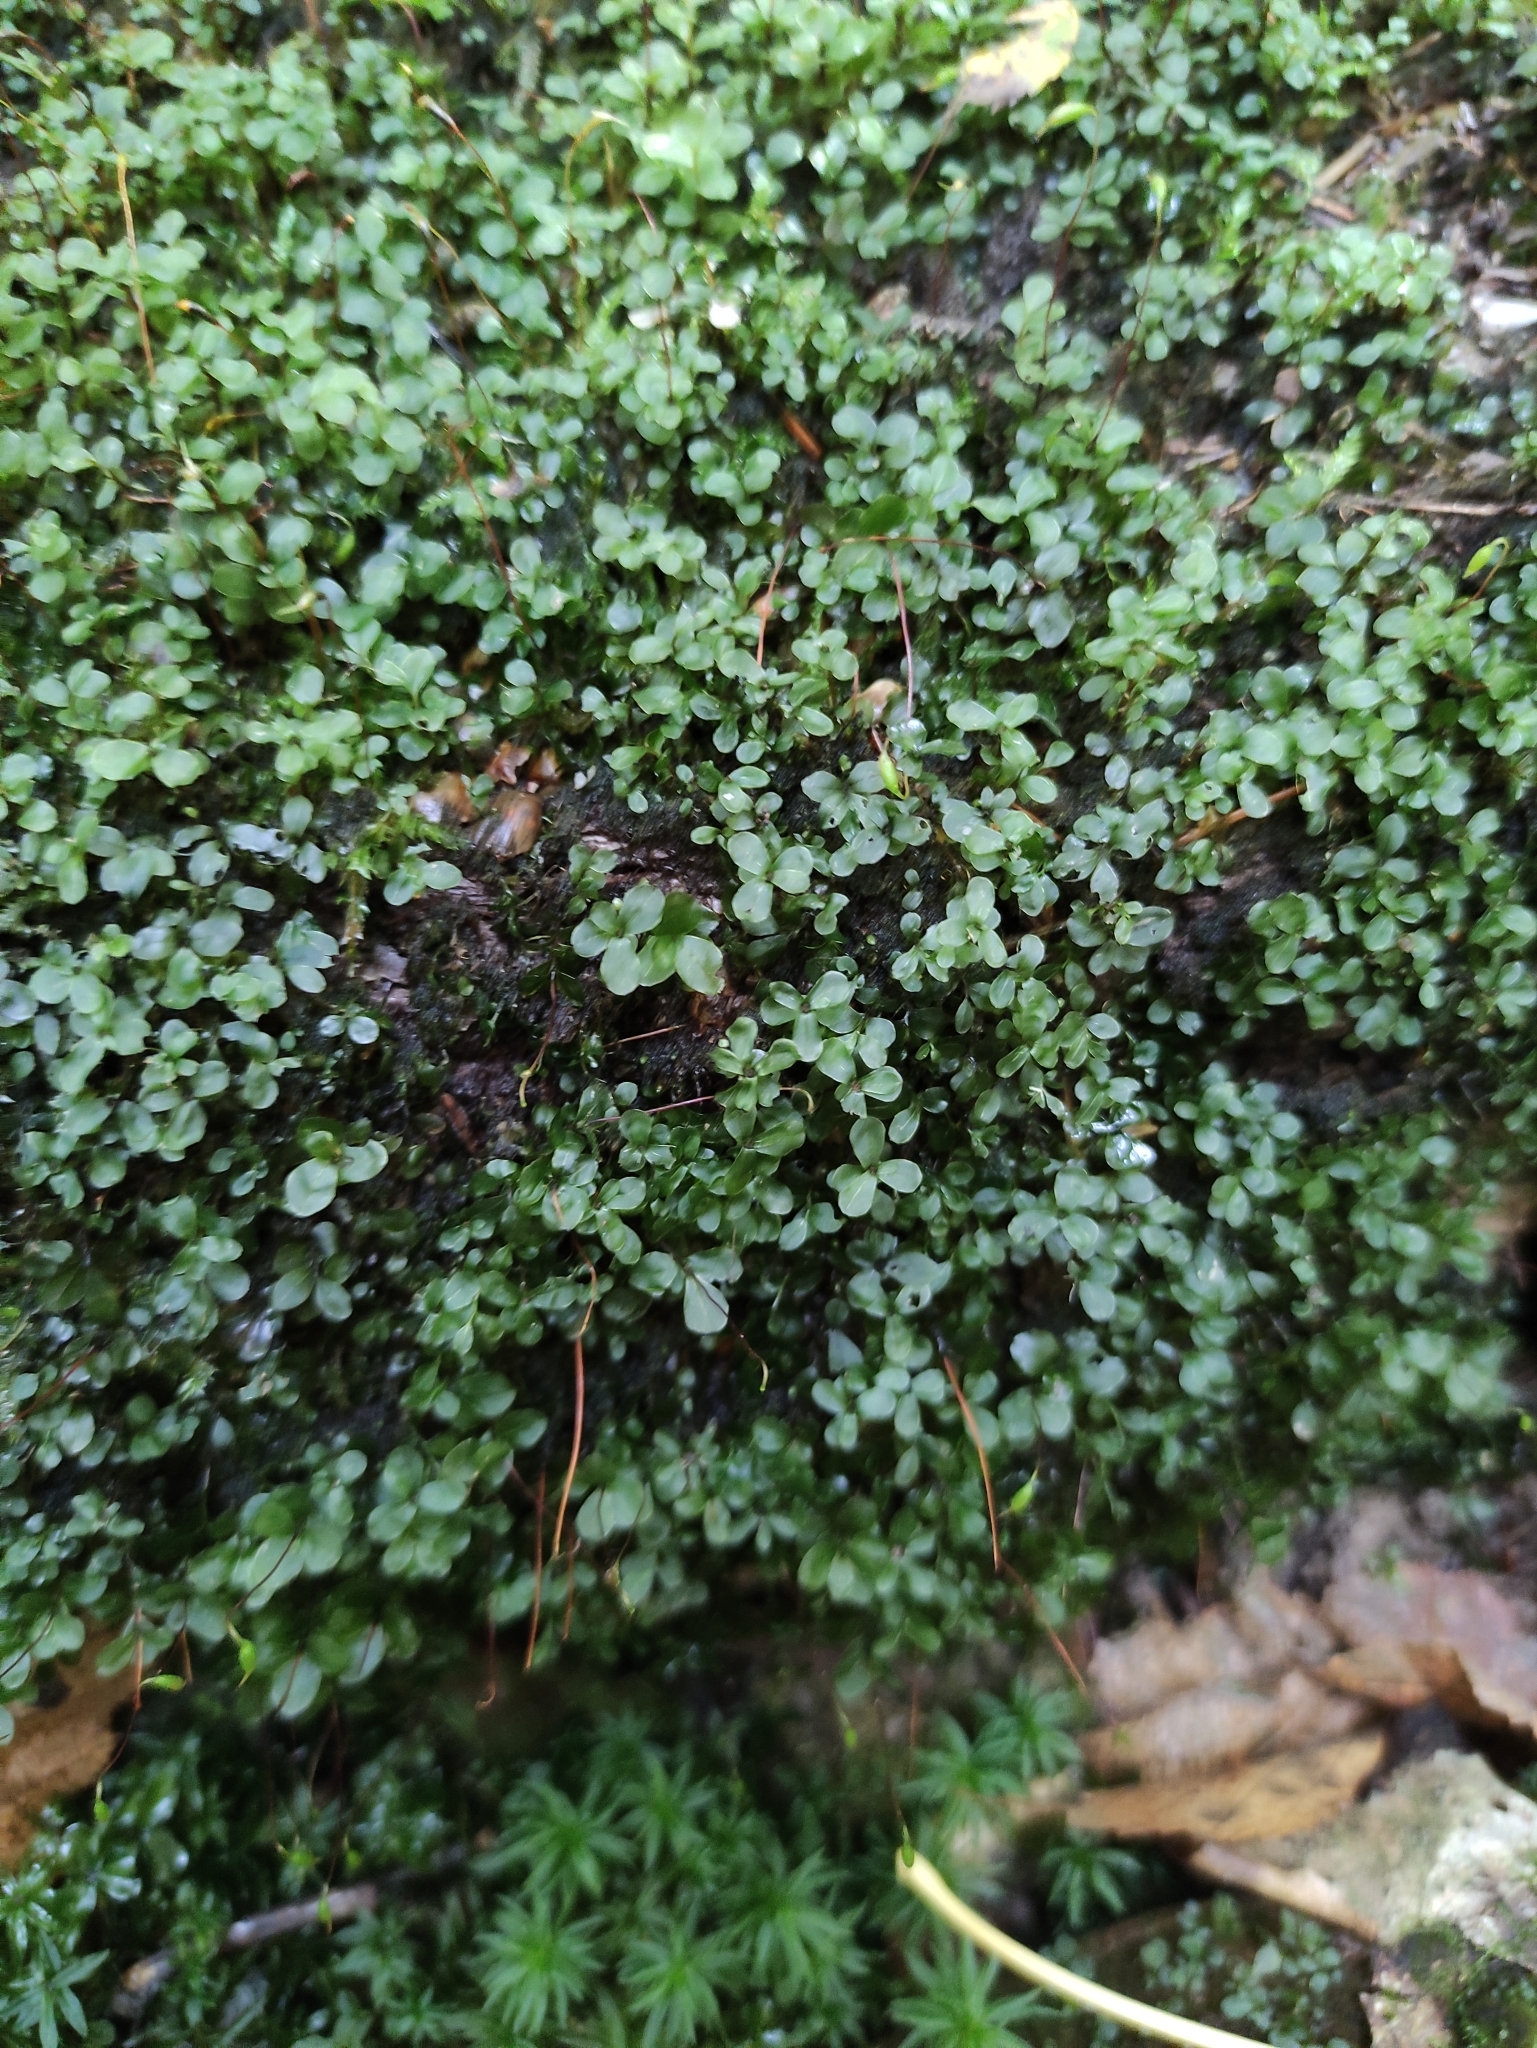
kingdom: Plantae
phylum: Bryophyta
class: Bryopsida
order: Bryales
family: Mniaceae
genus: Rhizomnium
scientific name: Rhizomnium punctatum
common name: Dotted leafy moss
